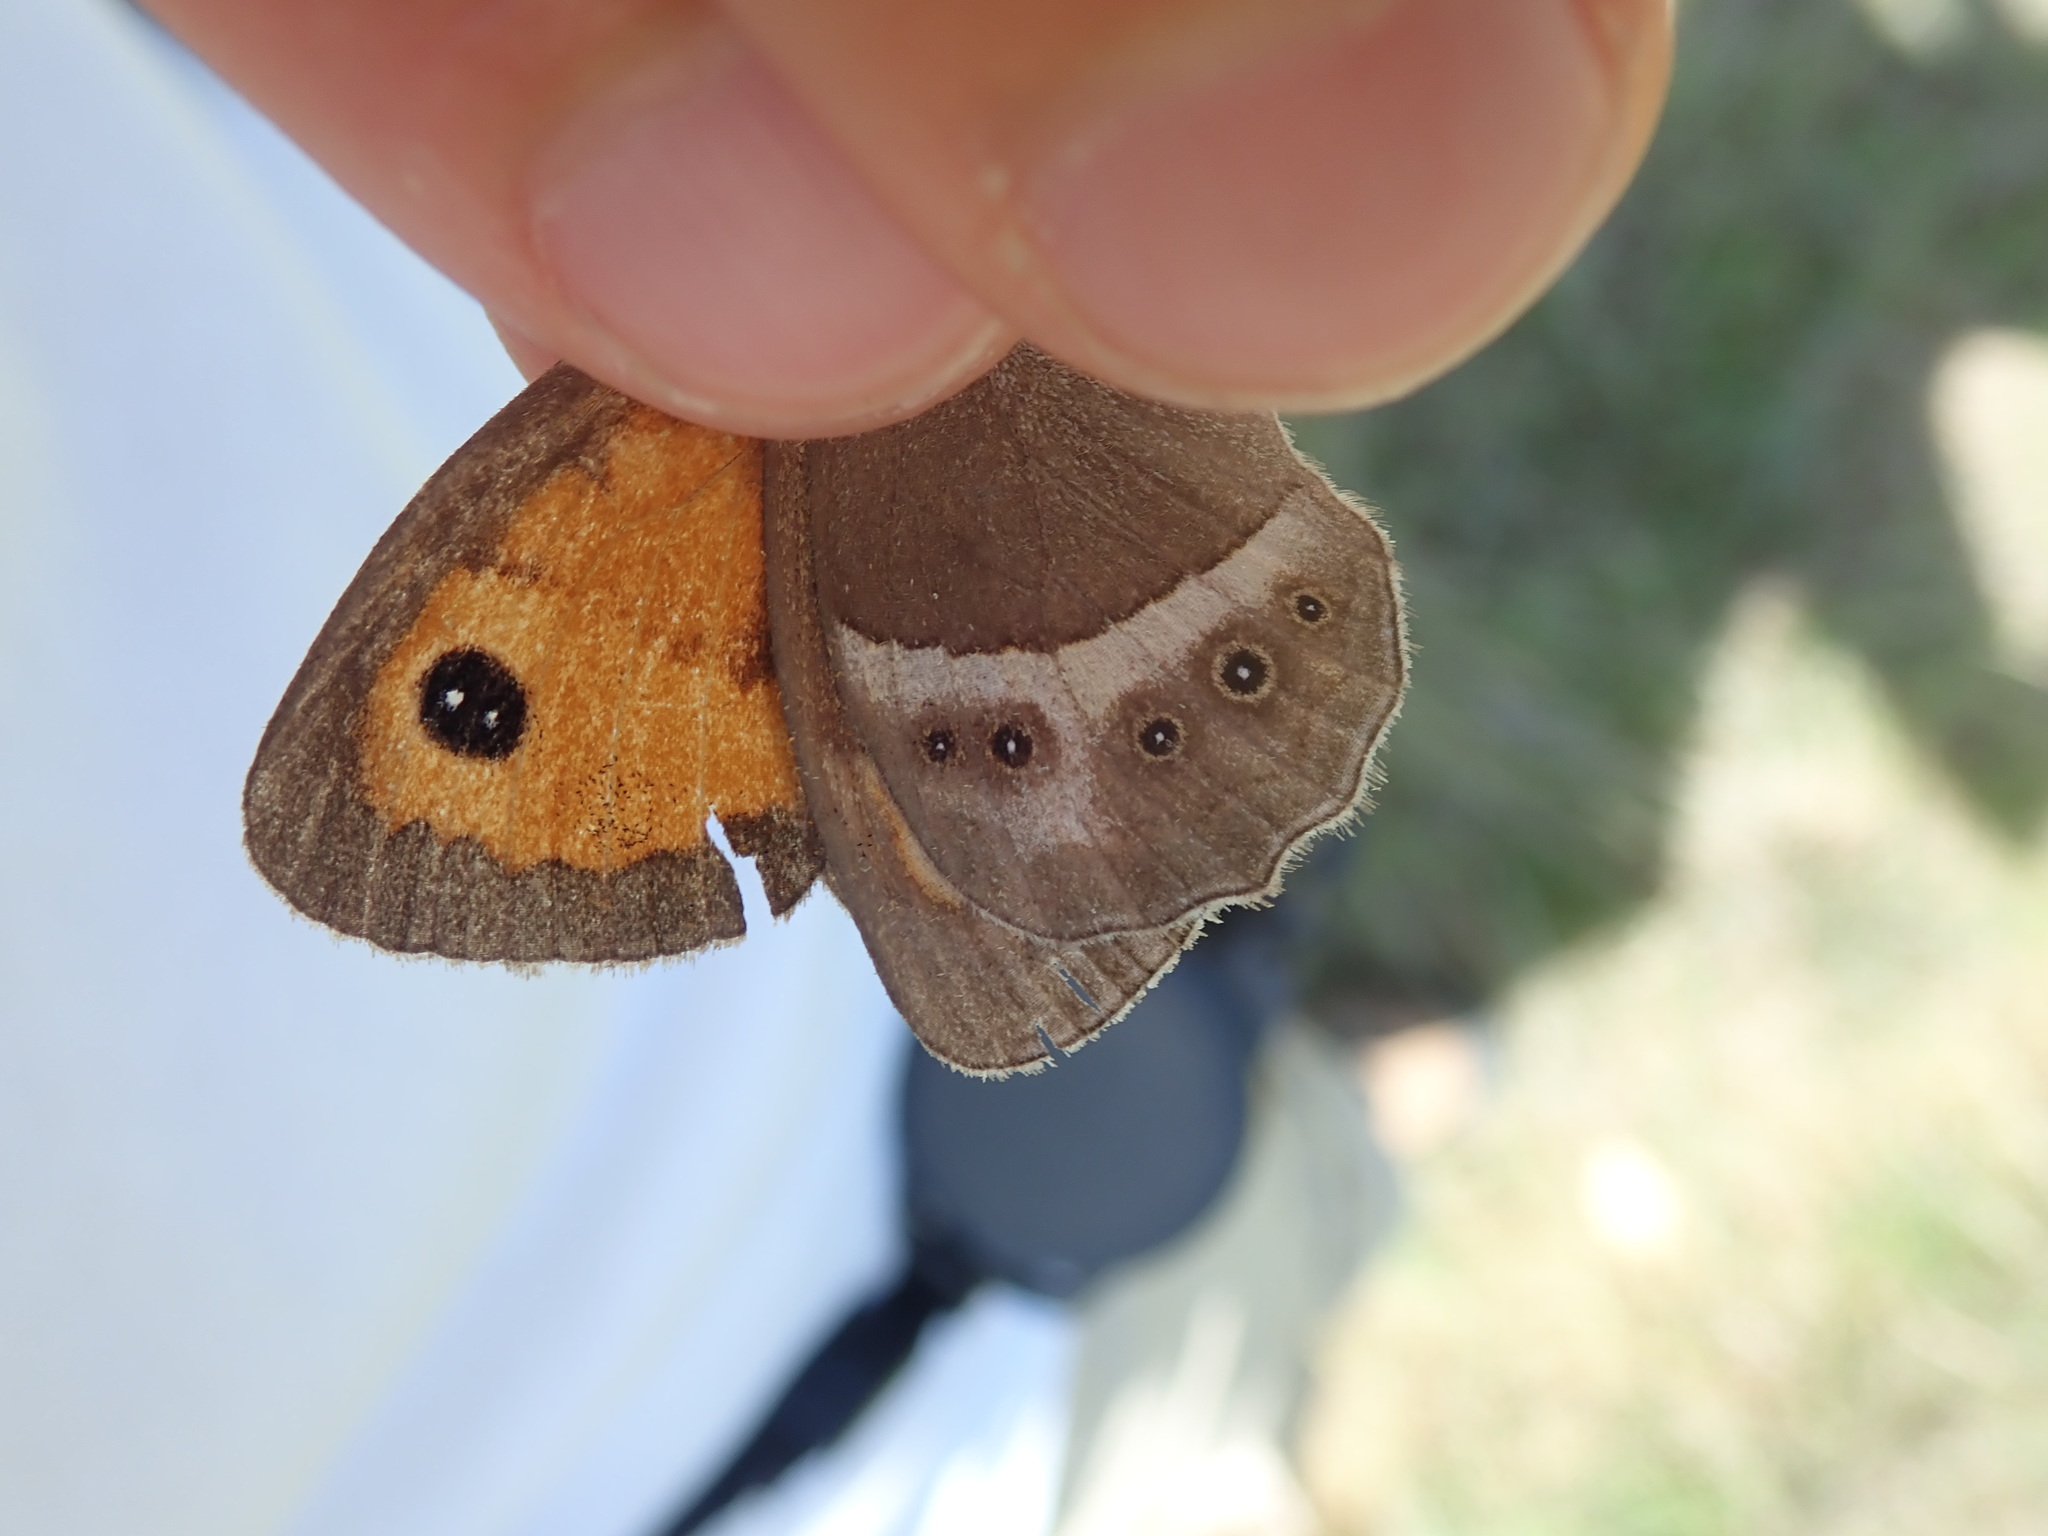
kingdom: Animalia
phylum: Arthropoda
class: Insecta
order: Lepidoptera
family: Nymphalidae
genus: Pyronia
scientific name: Pyronia bathseba
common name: Spanish gatekeeper
